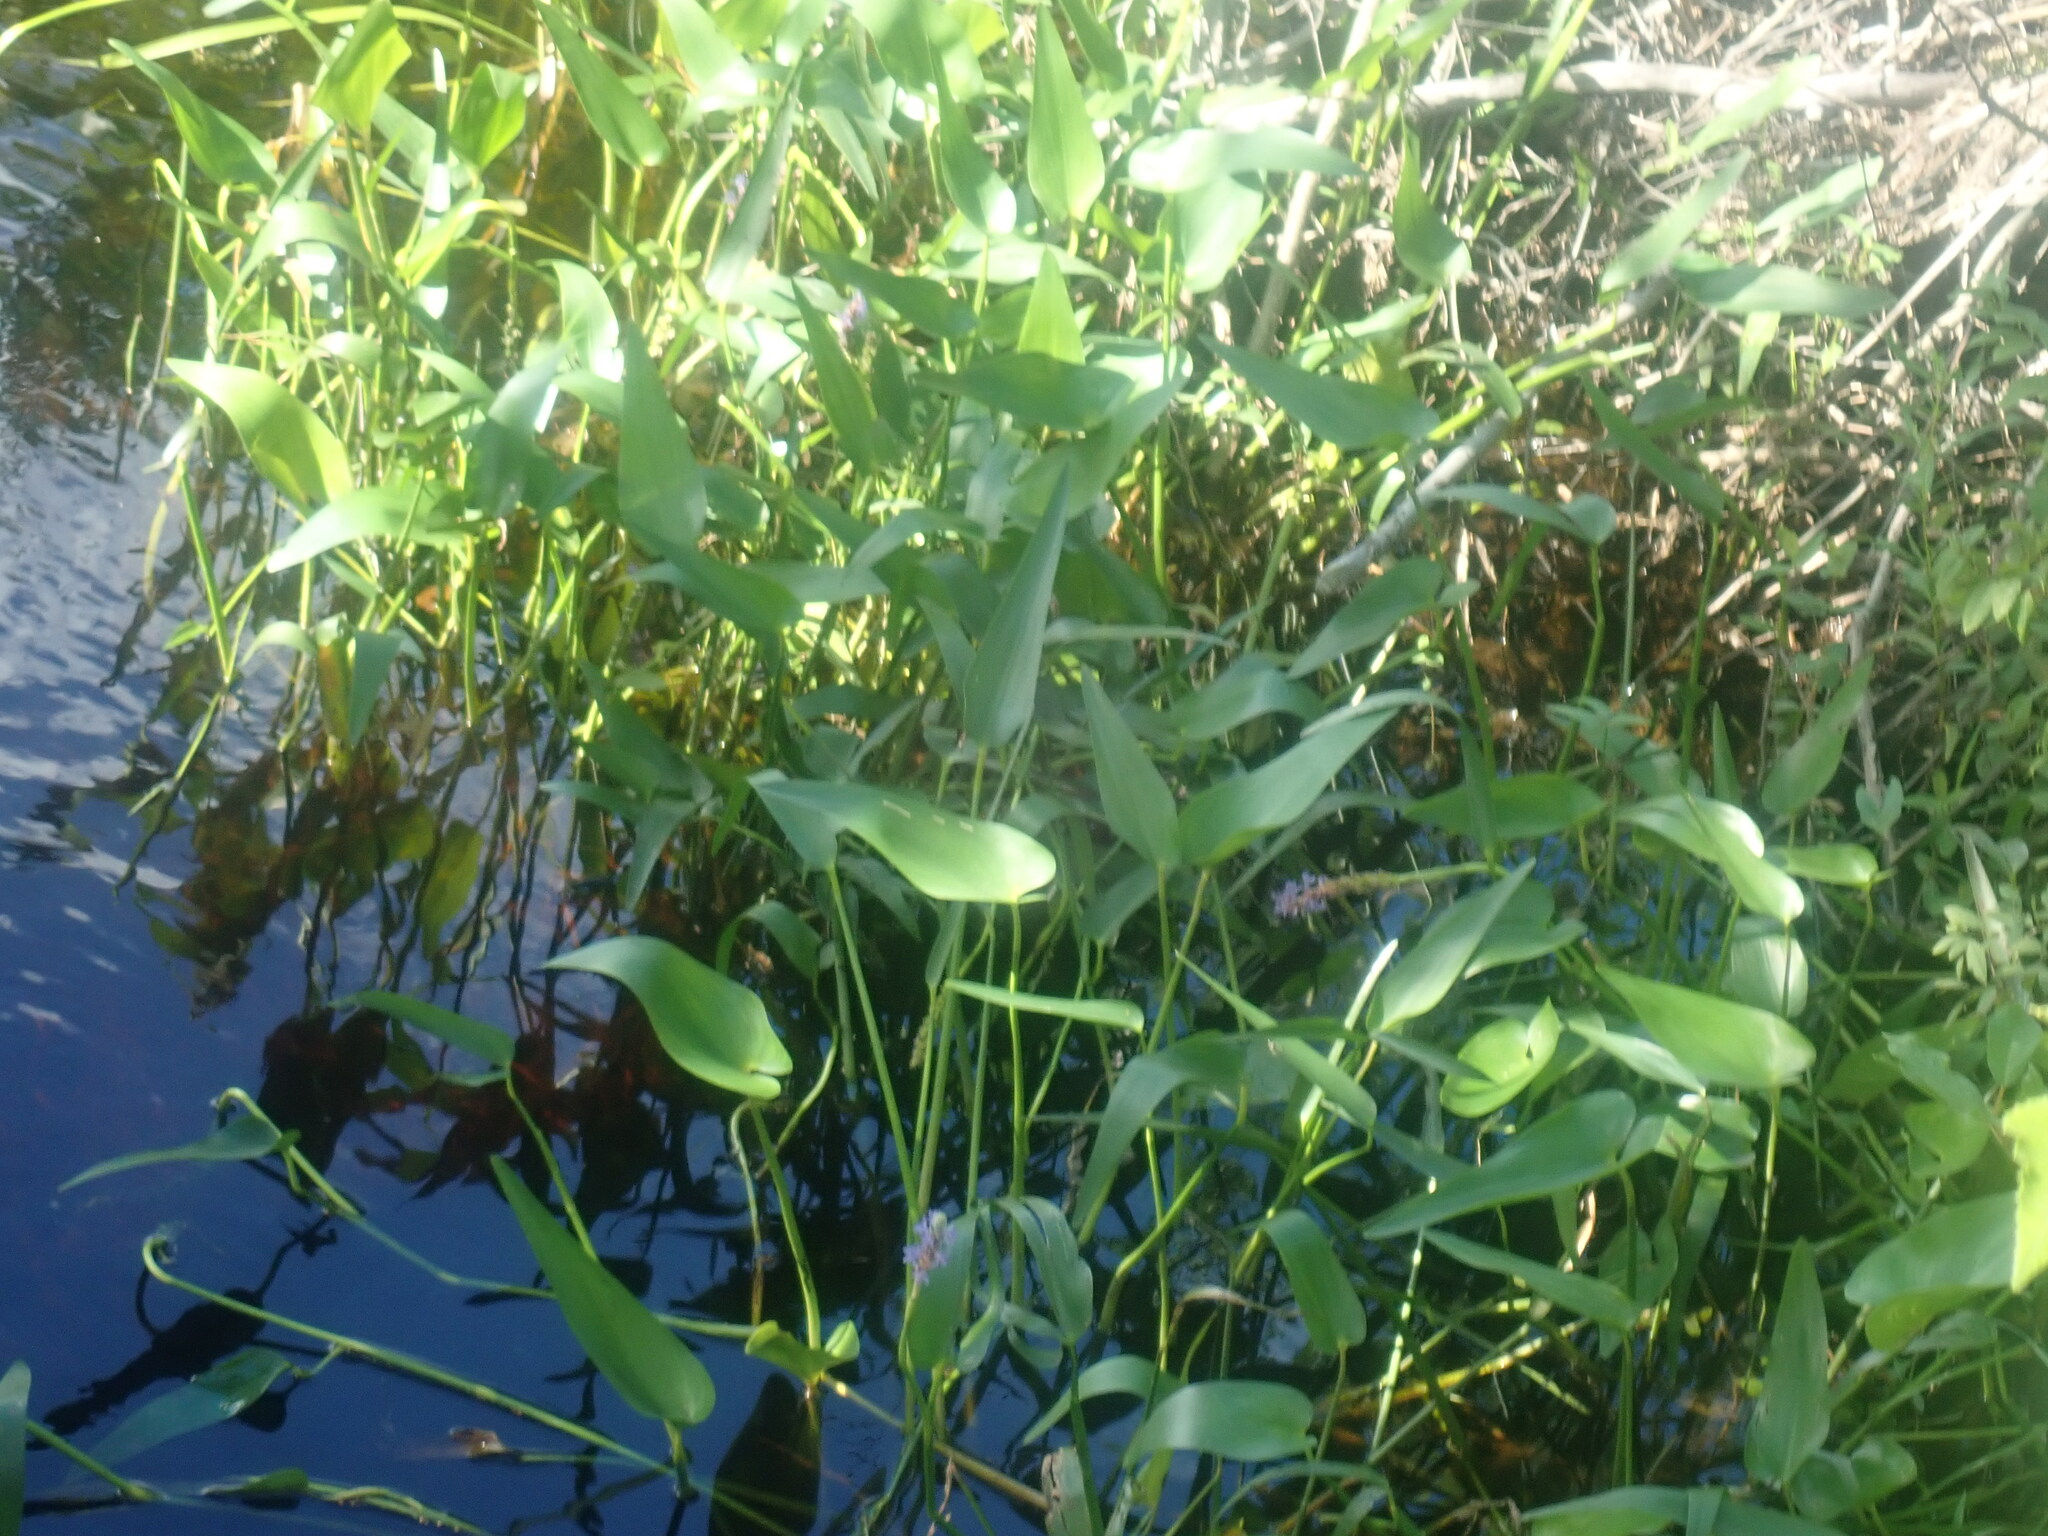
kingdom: Plantae
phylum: Tracheophyta
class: Liliopsida
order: Commelinales
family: Pontederiaceae
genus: Pontederia
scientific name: Pontederia cordata
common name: Pickerelweed
